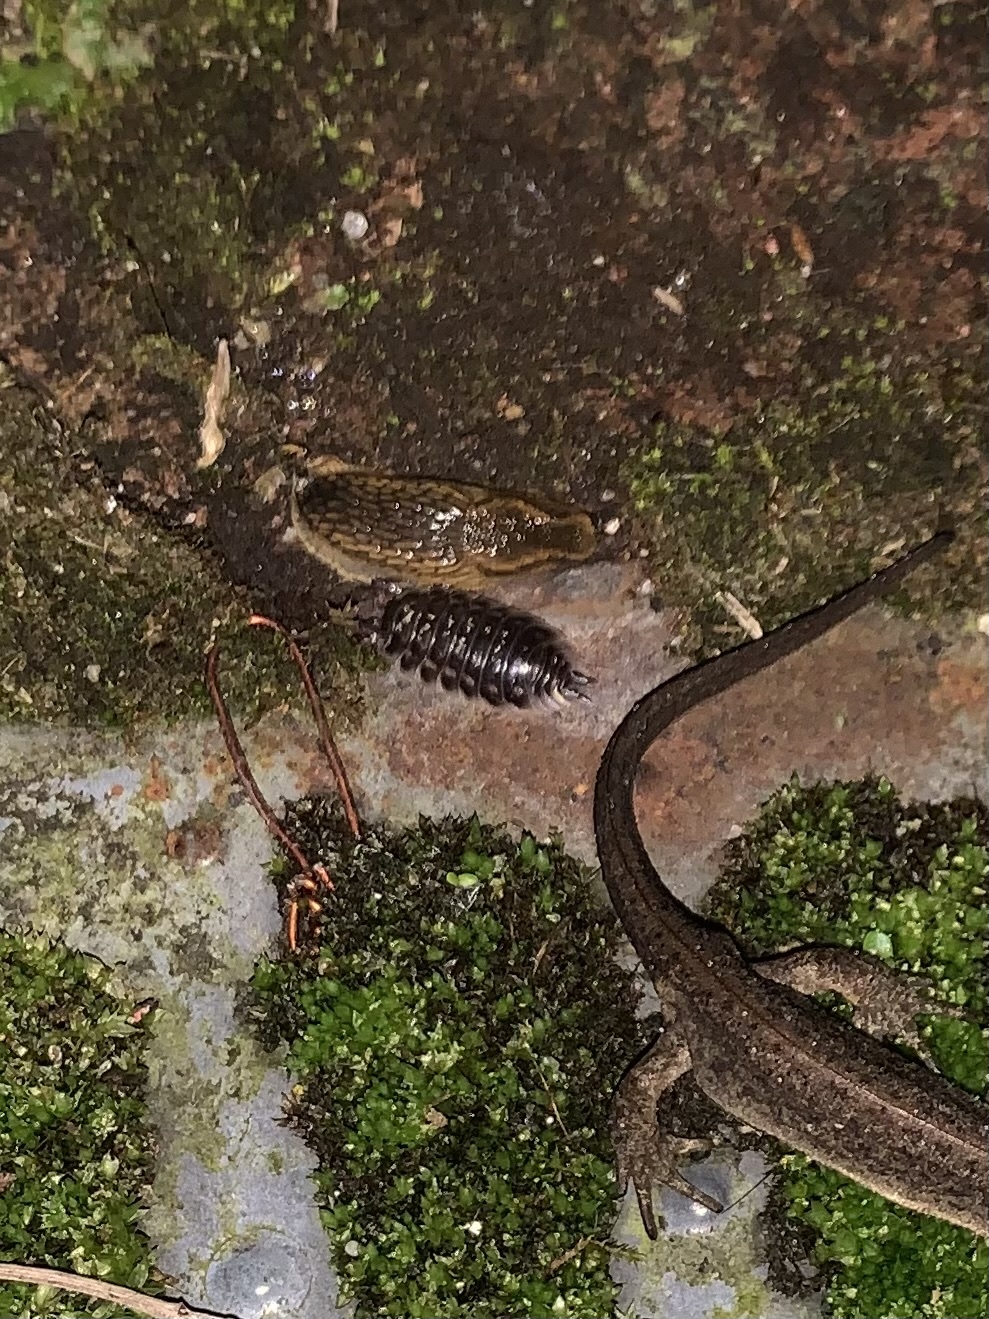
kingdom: Animalia
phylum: Arthropoda
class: Malacostraca
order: Isopoda
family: Oniscidae
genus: Oniscus
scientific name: Oniscus asellus
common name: Common shiny woodlouse
